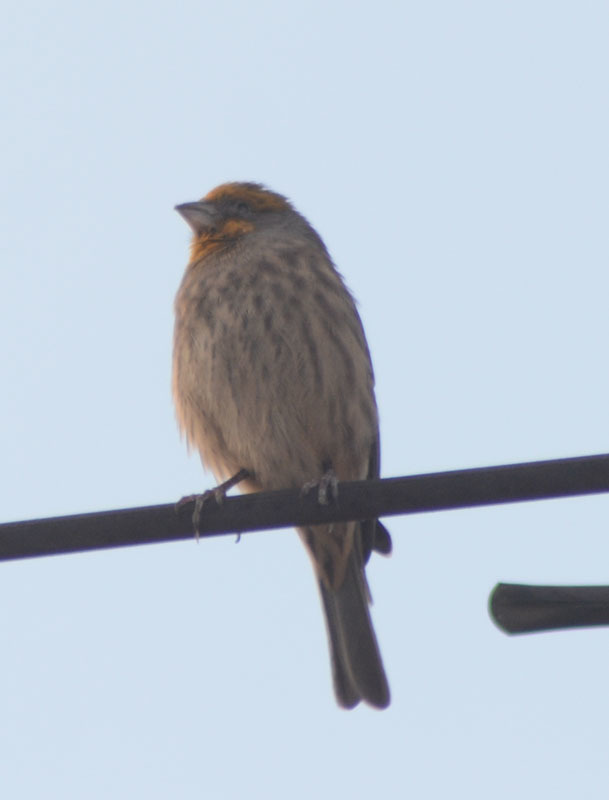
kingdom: Animalia
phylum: Chordata
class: Aves
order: Passeriformes
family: Fringillidae
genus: Haemorhous
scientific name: Haemorhous mexicanus
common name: House finch
